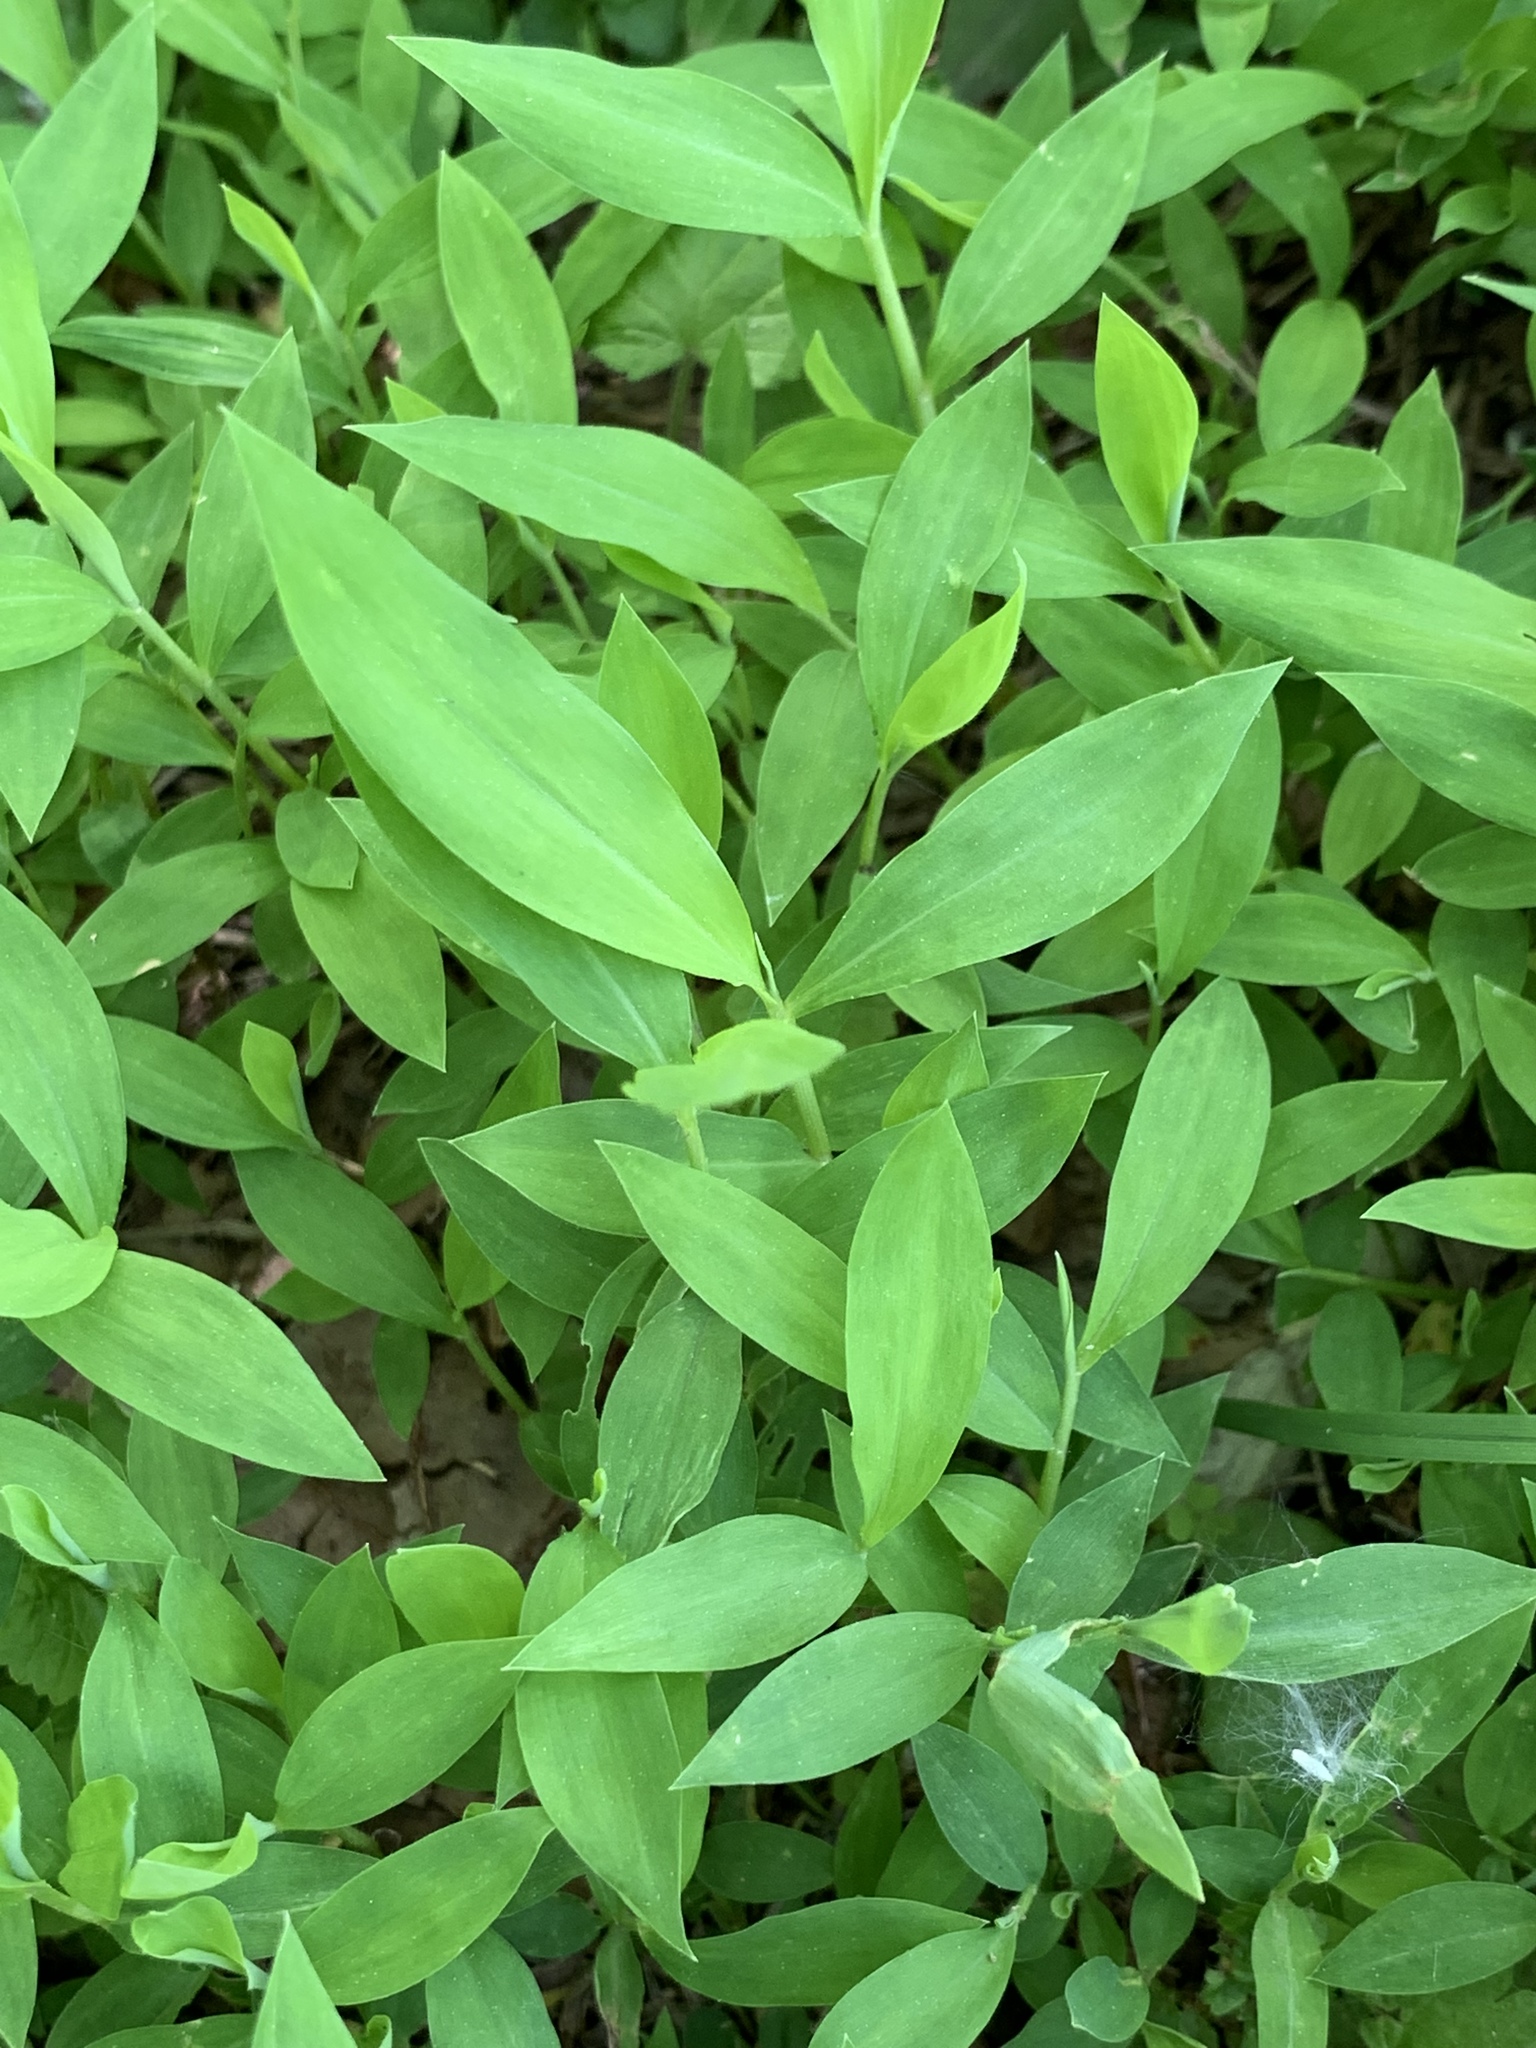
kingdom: Plantae
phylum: Tracheophyta
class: Liliopsida
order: Poales
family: Poaceae
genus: Microstegium
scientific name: Microstegium vimineum
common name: Japanese stiltgrass
